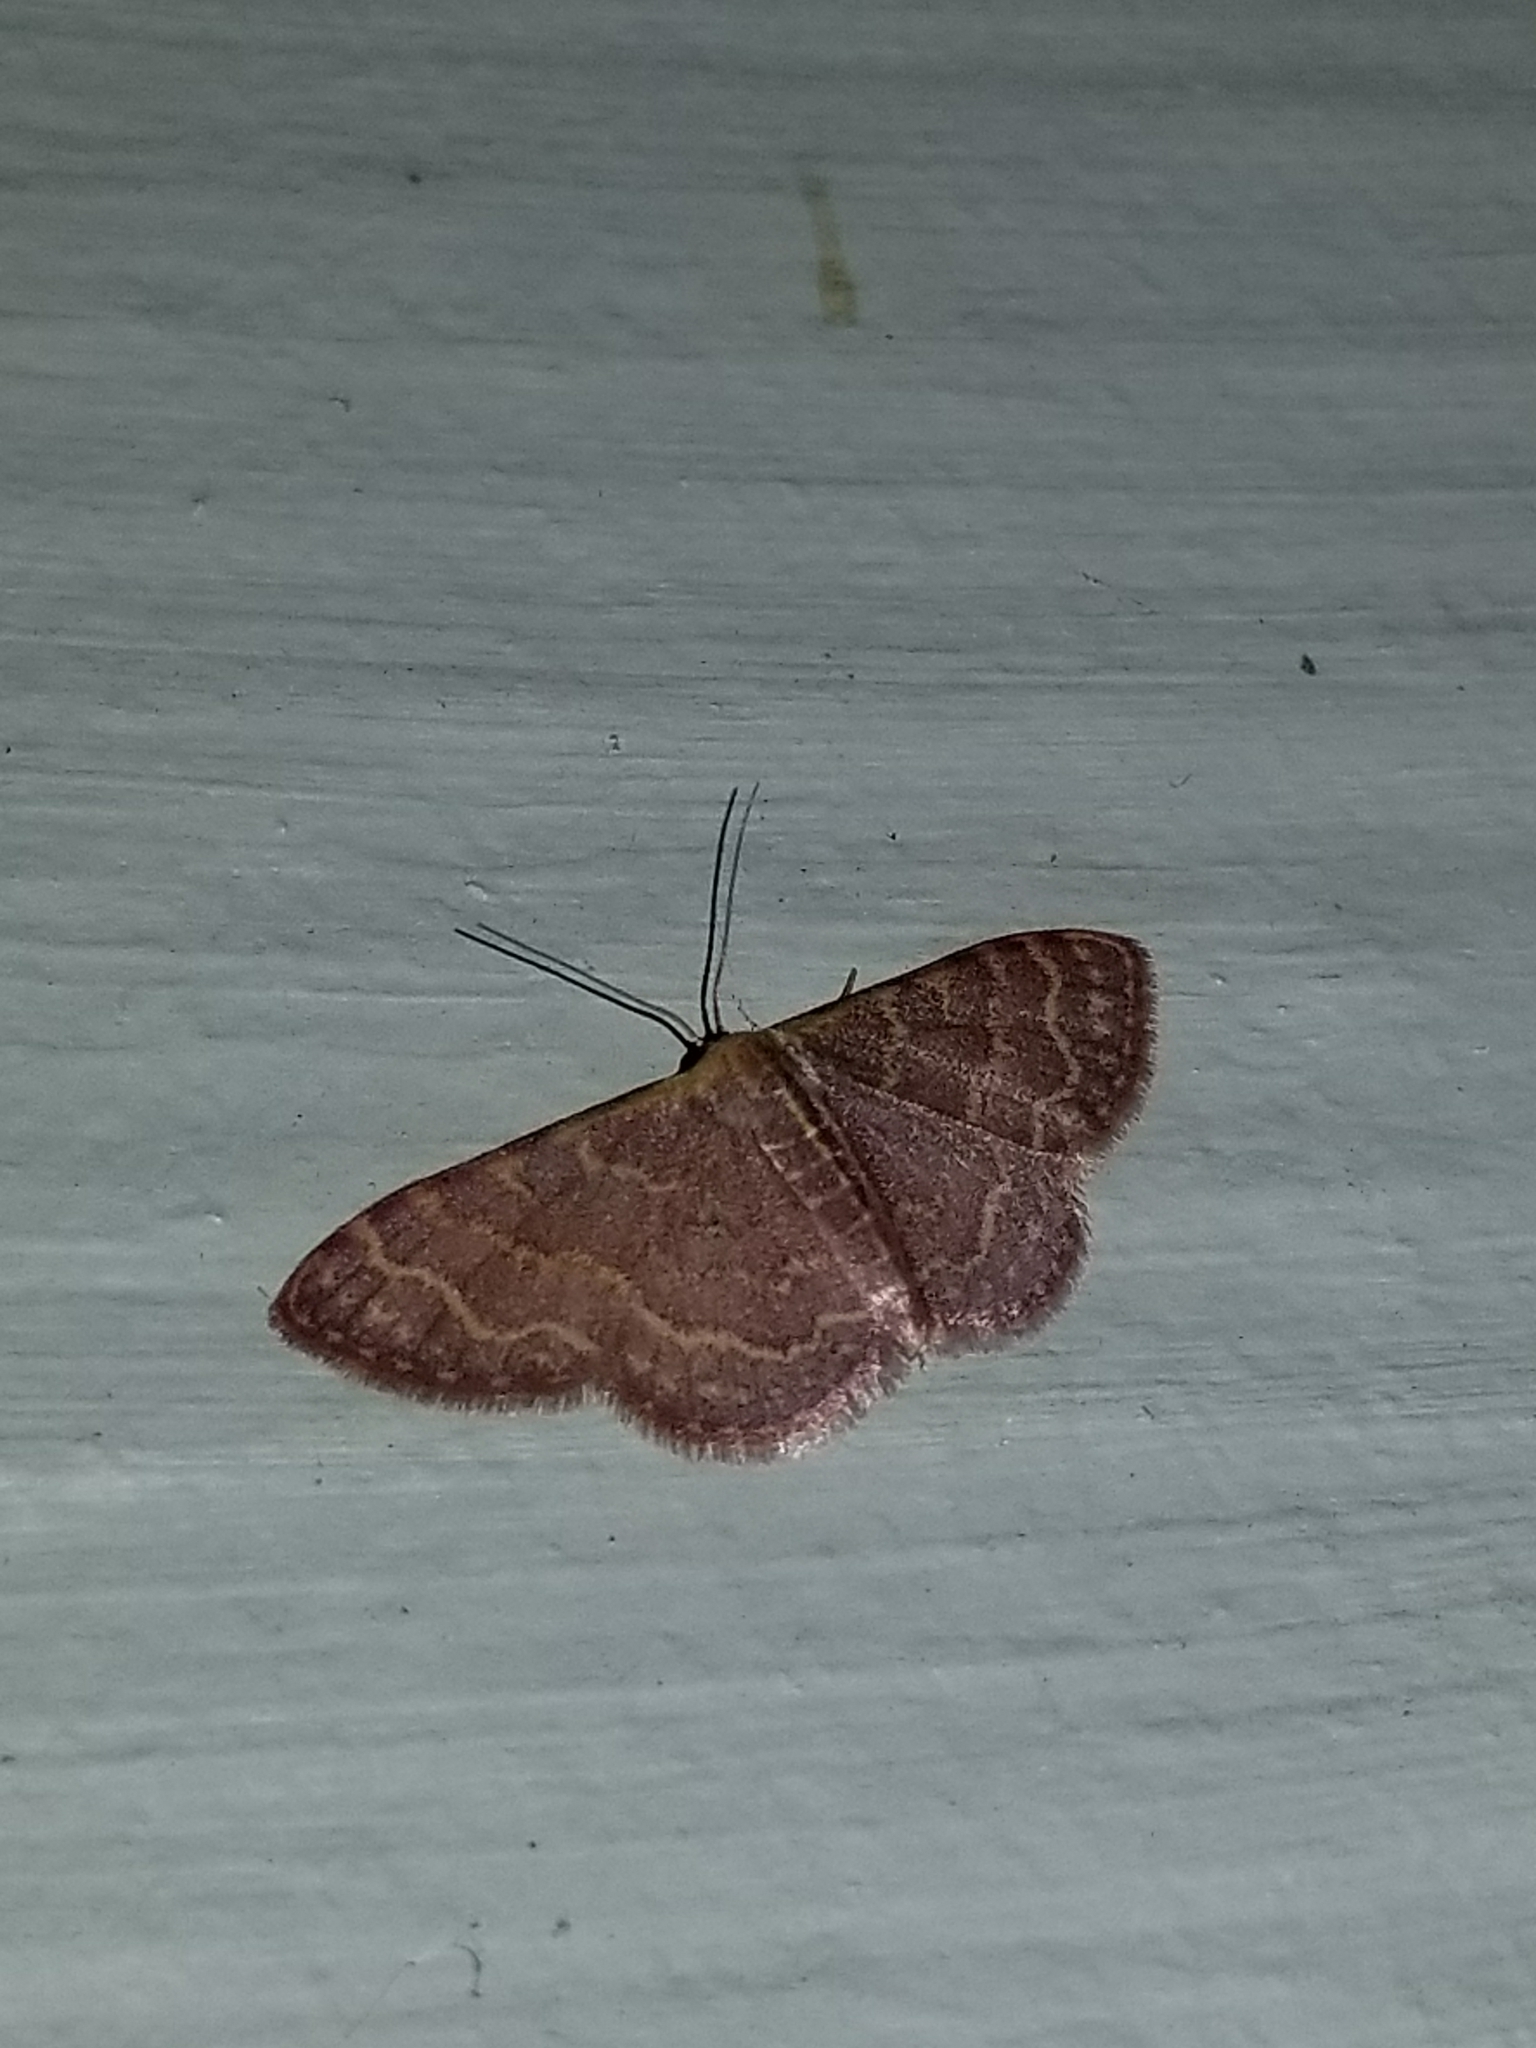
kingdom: Animalia
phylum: Arthropoda
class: Insecta
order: Lepidoptera
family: Geometridae
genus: Leptostales
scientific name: Leptostales pannaria
